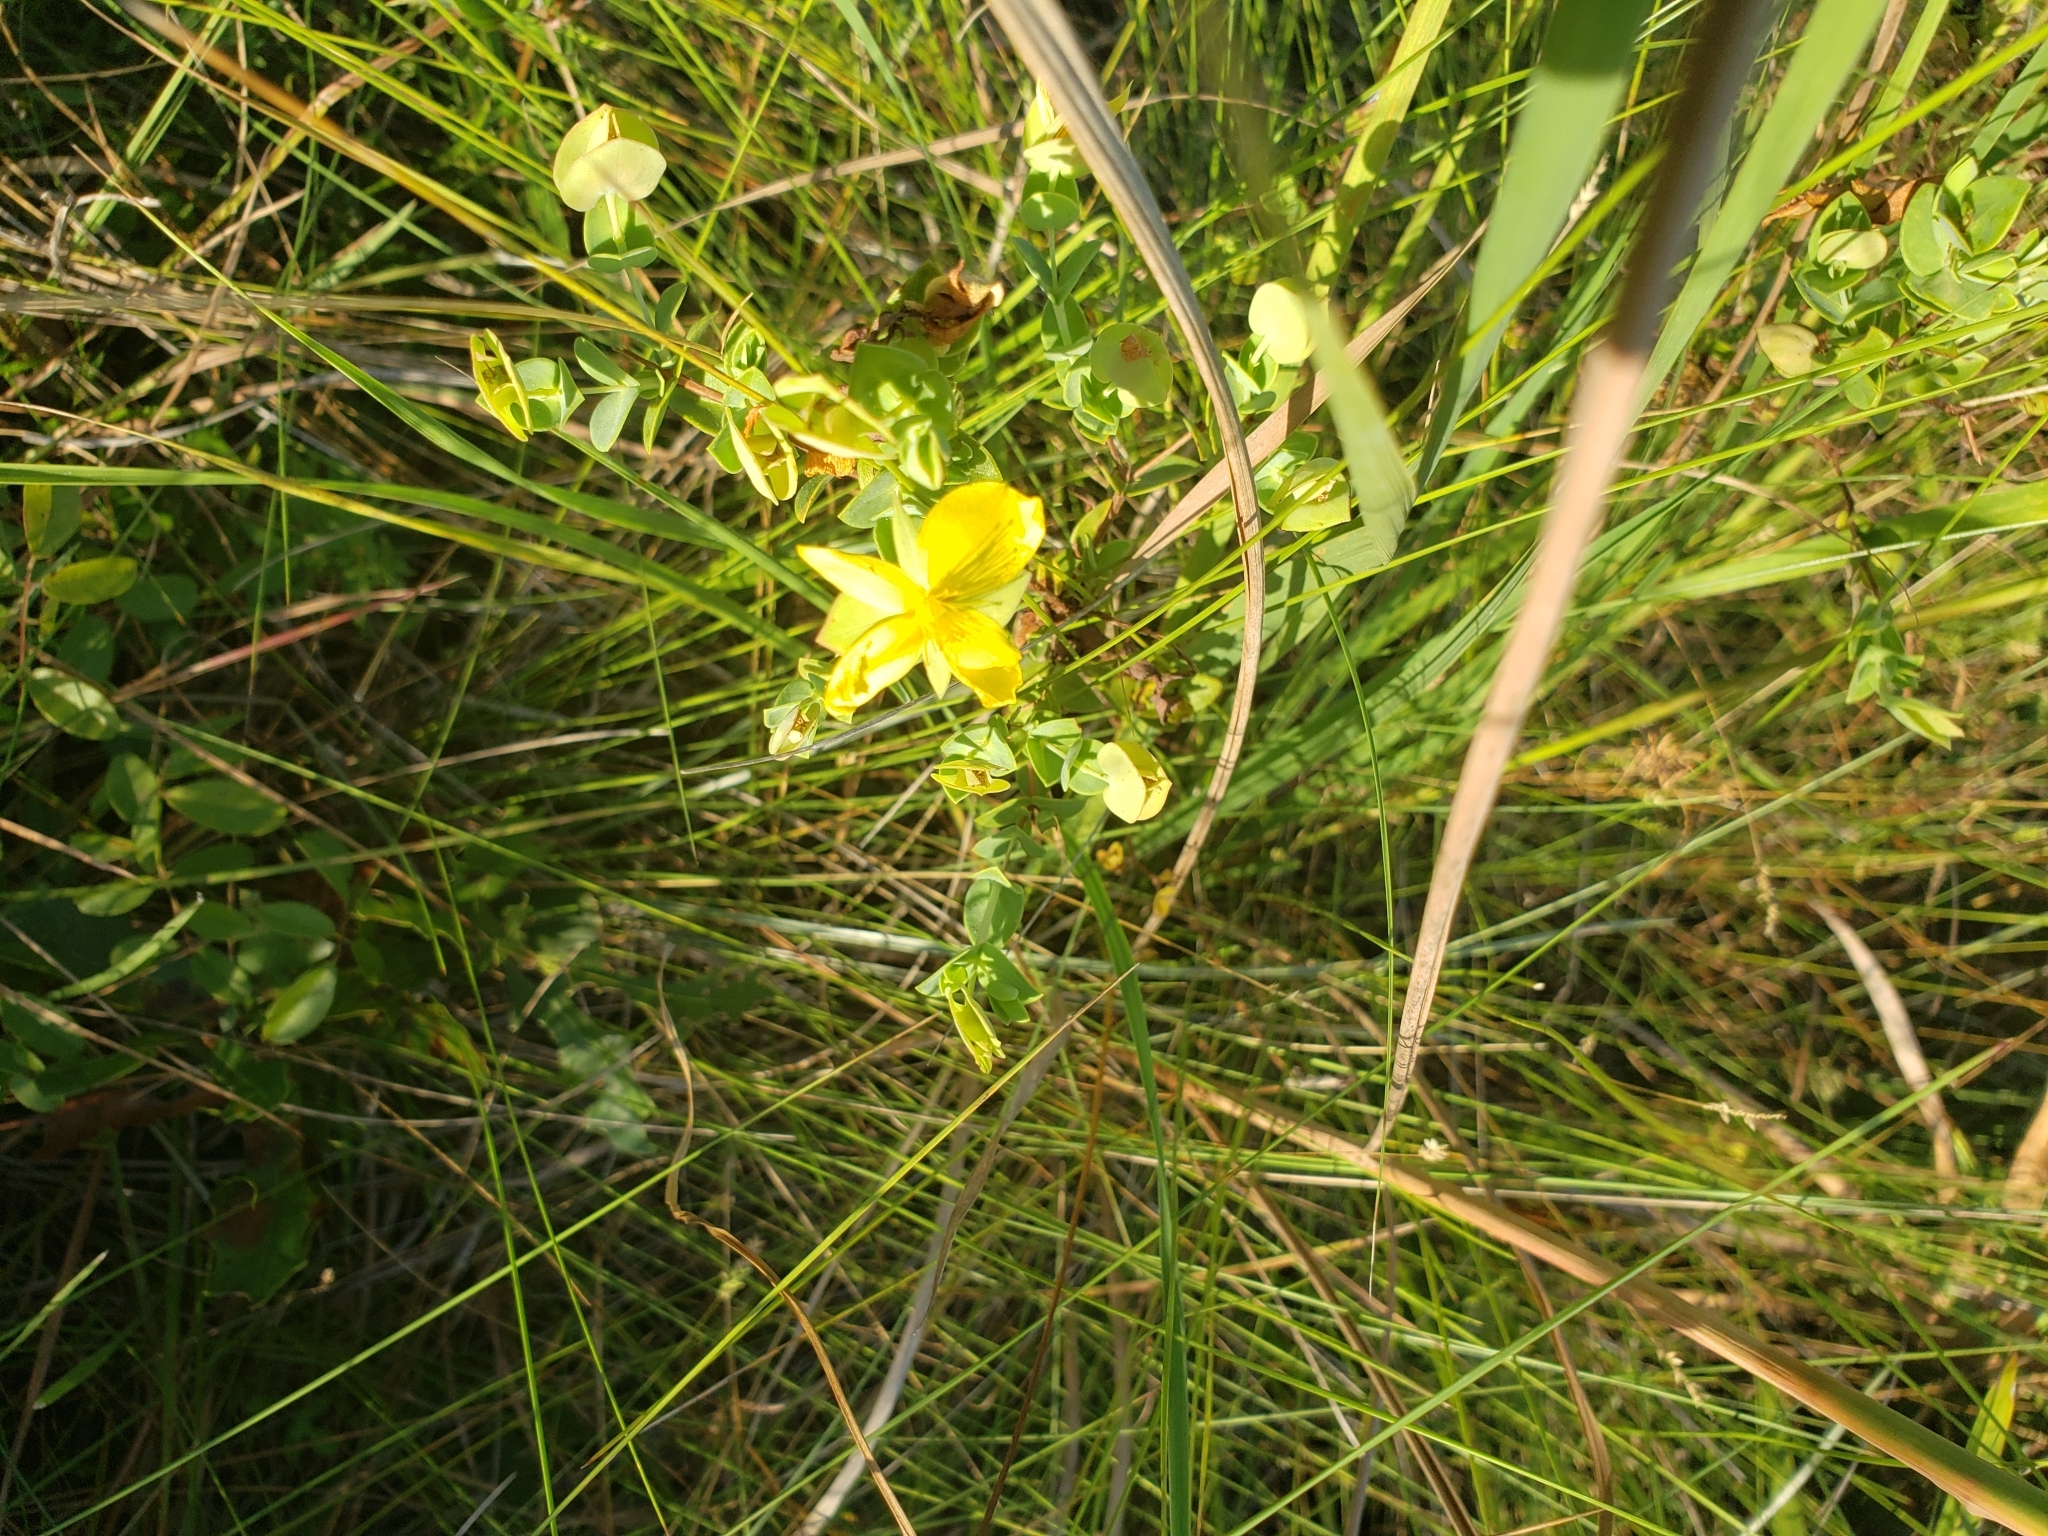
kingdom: Plantae
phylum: Tracheophyta
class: Magnoliopsida
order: Malpighiales
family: Hypericaceae
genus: Hypericum
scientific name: Hypericum tetrapetalum
